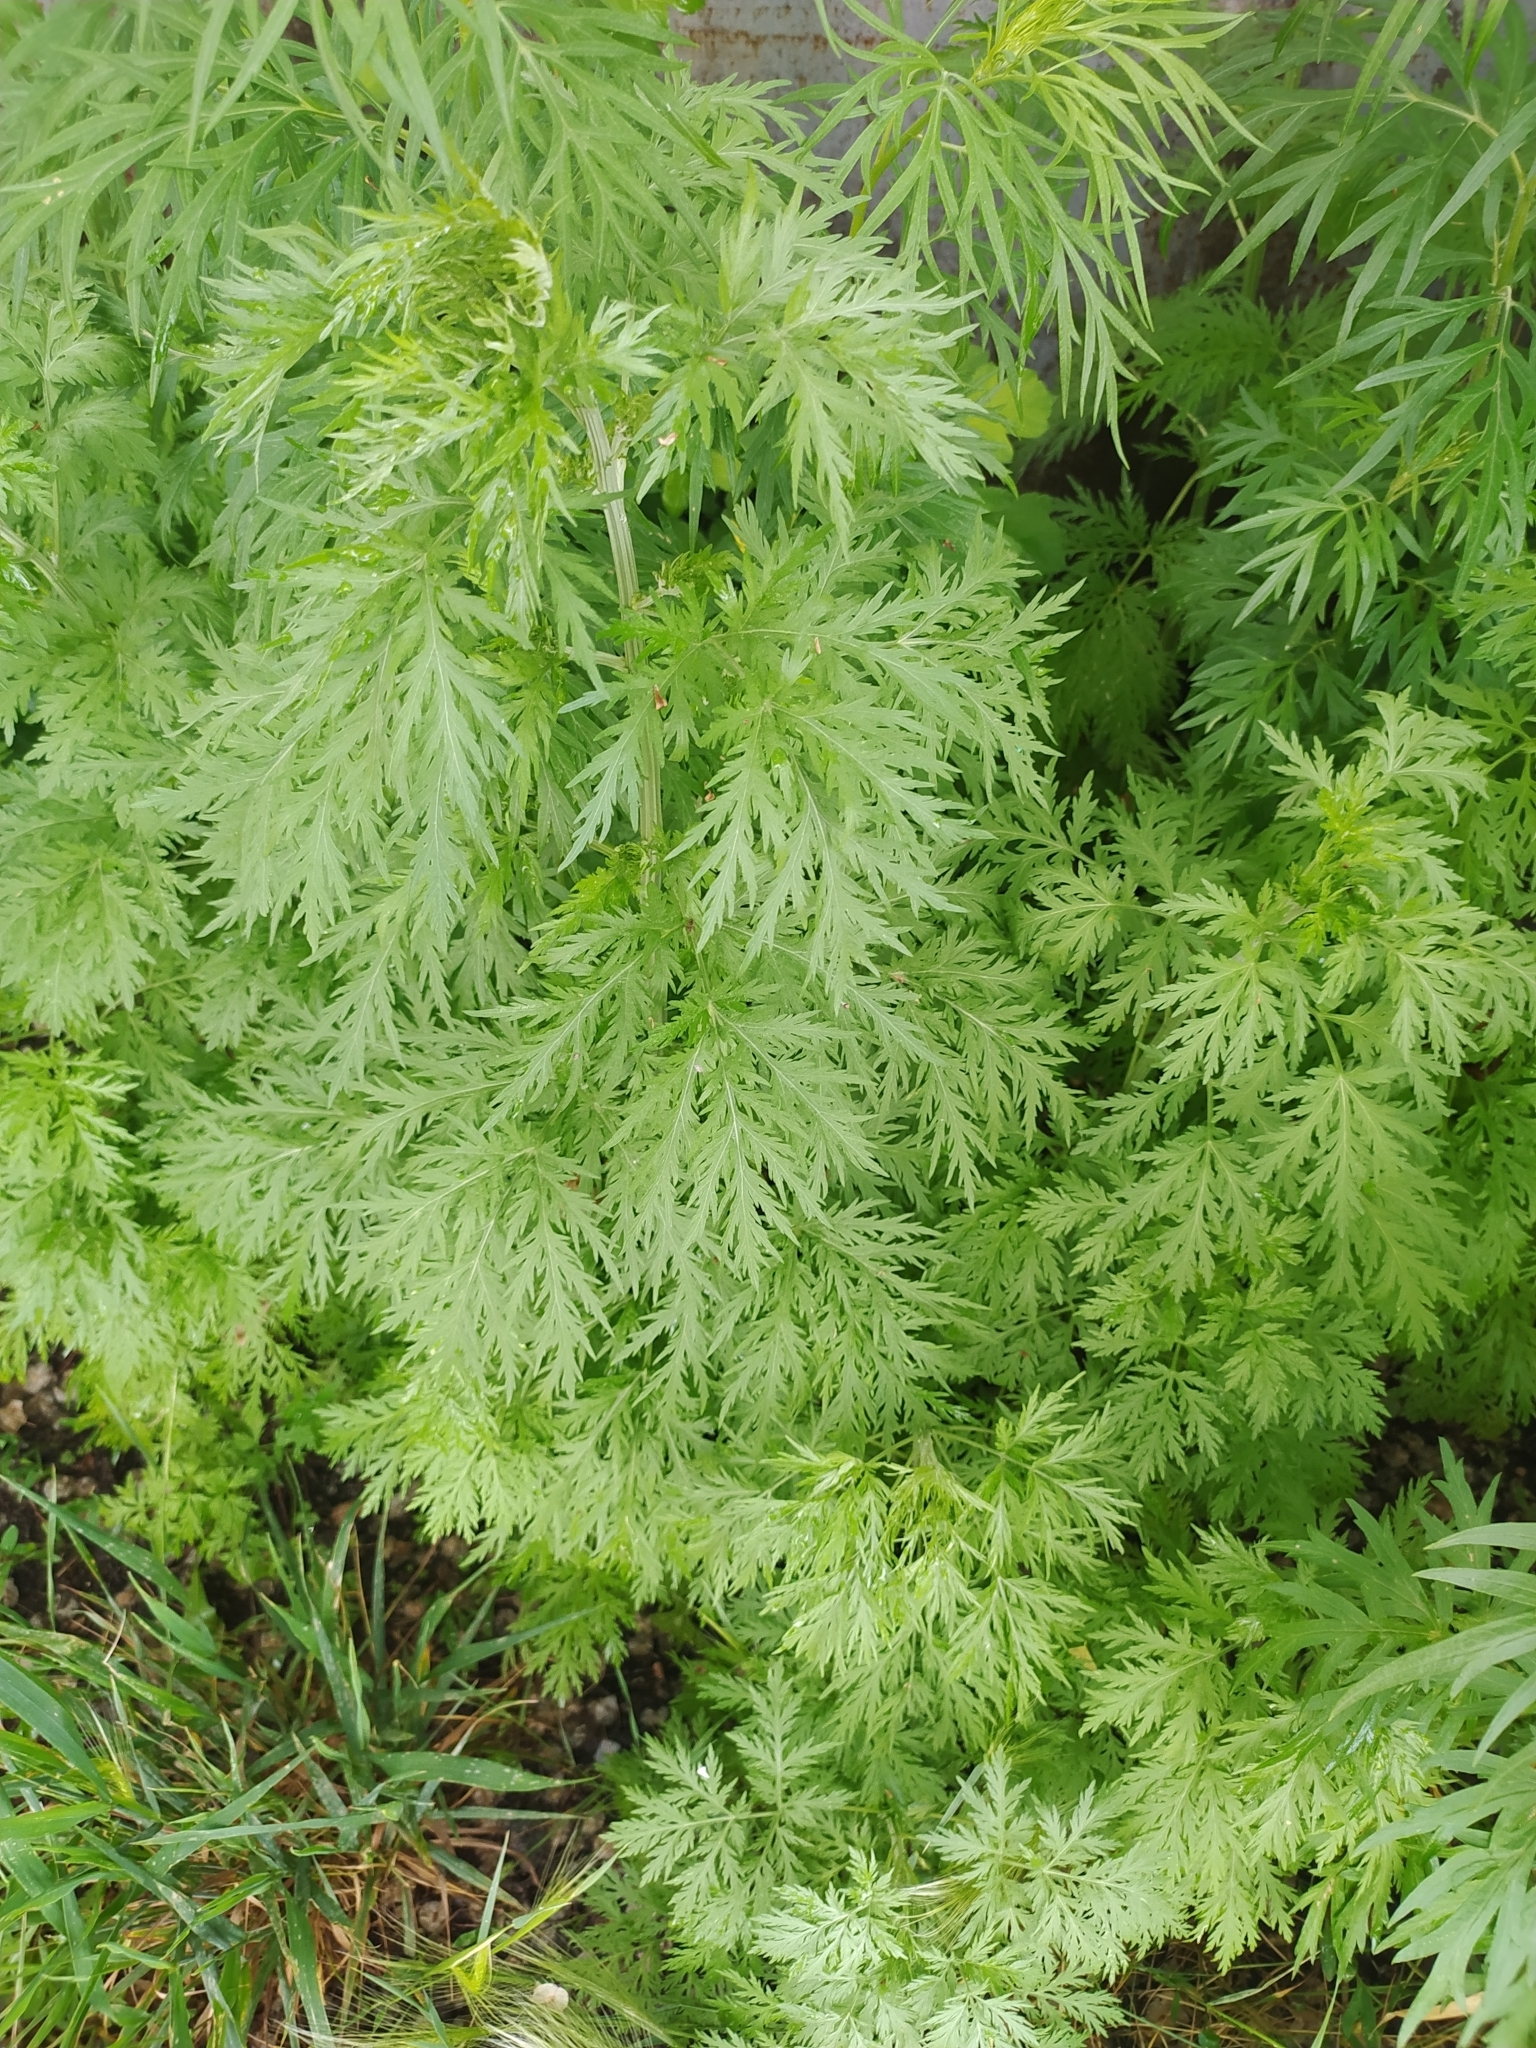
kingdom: Plantae
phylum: Tracheophyta
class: Magnoliopsida
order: Asterales
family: Asteraceae
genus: Artemisia
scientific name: Artemisia annua
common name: Sweet sagewort
